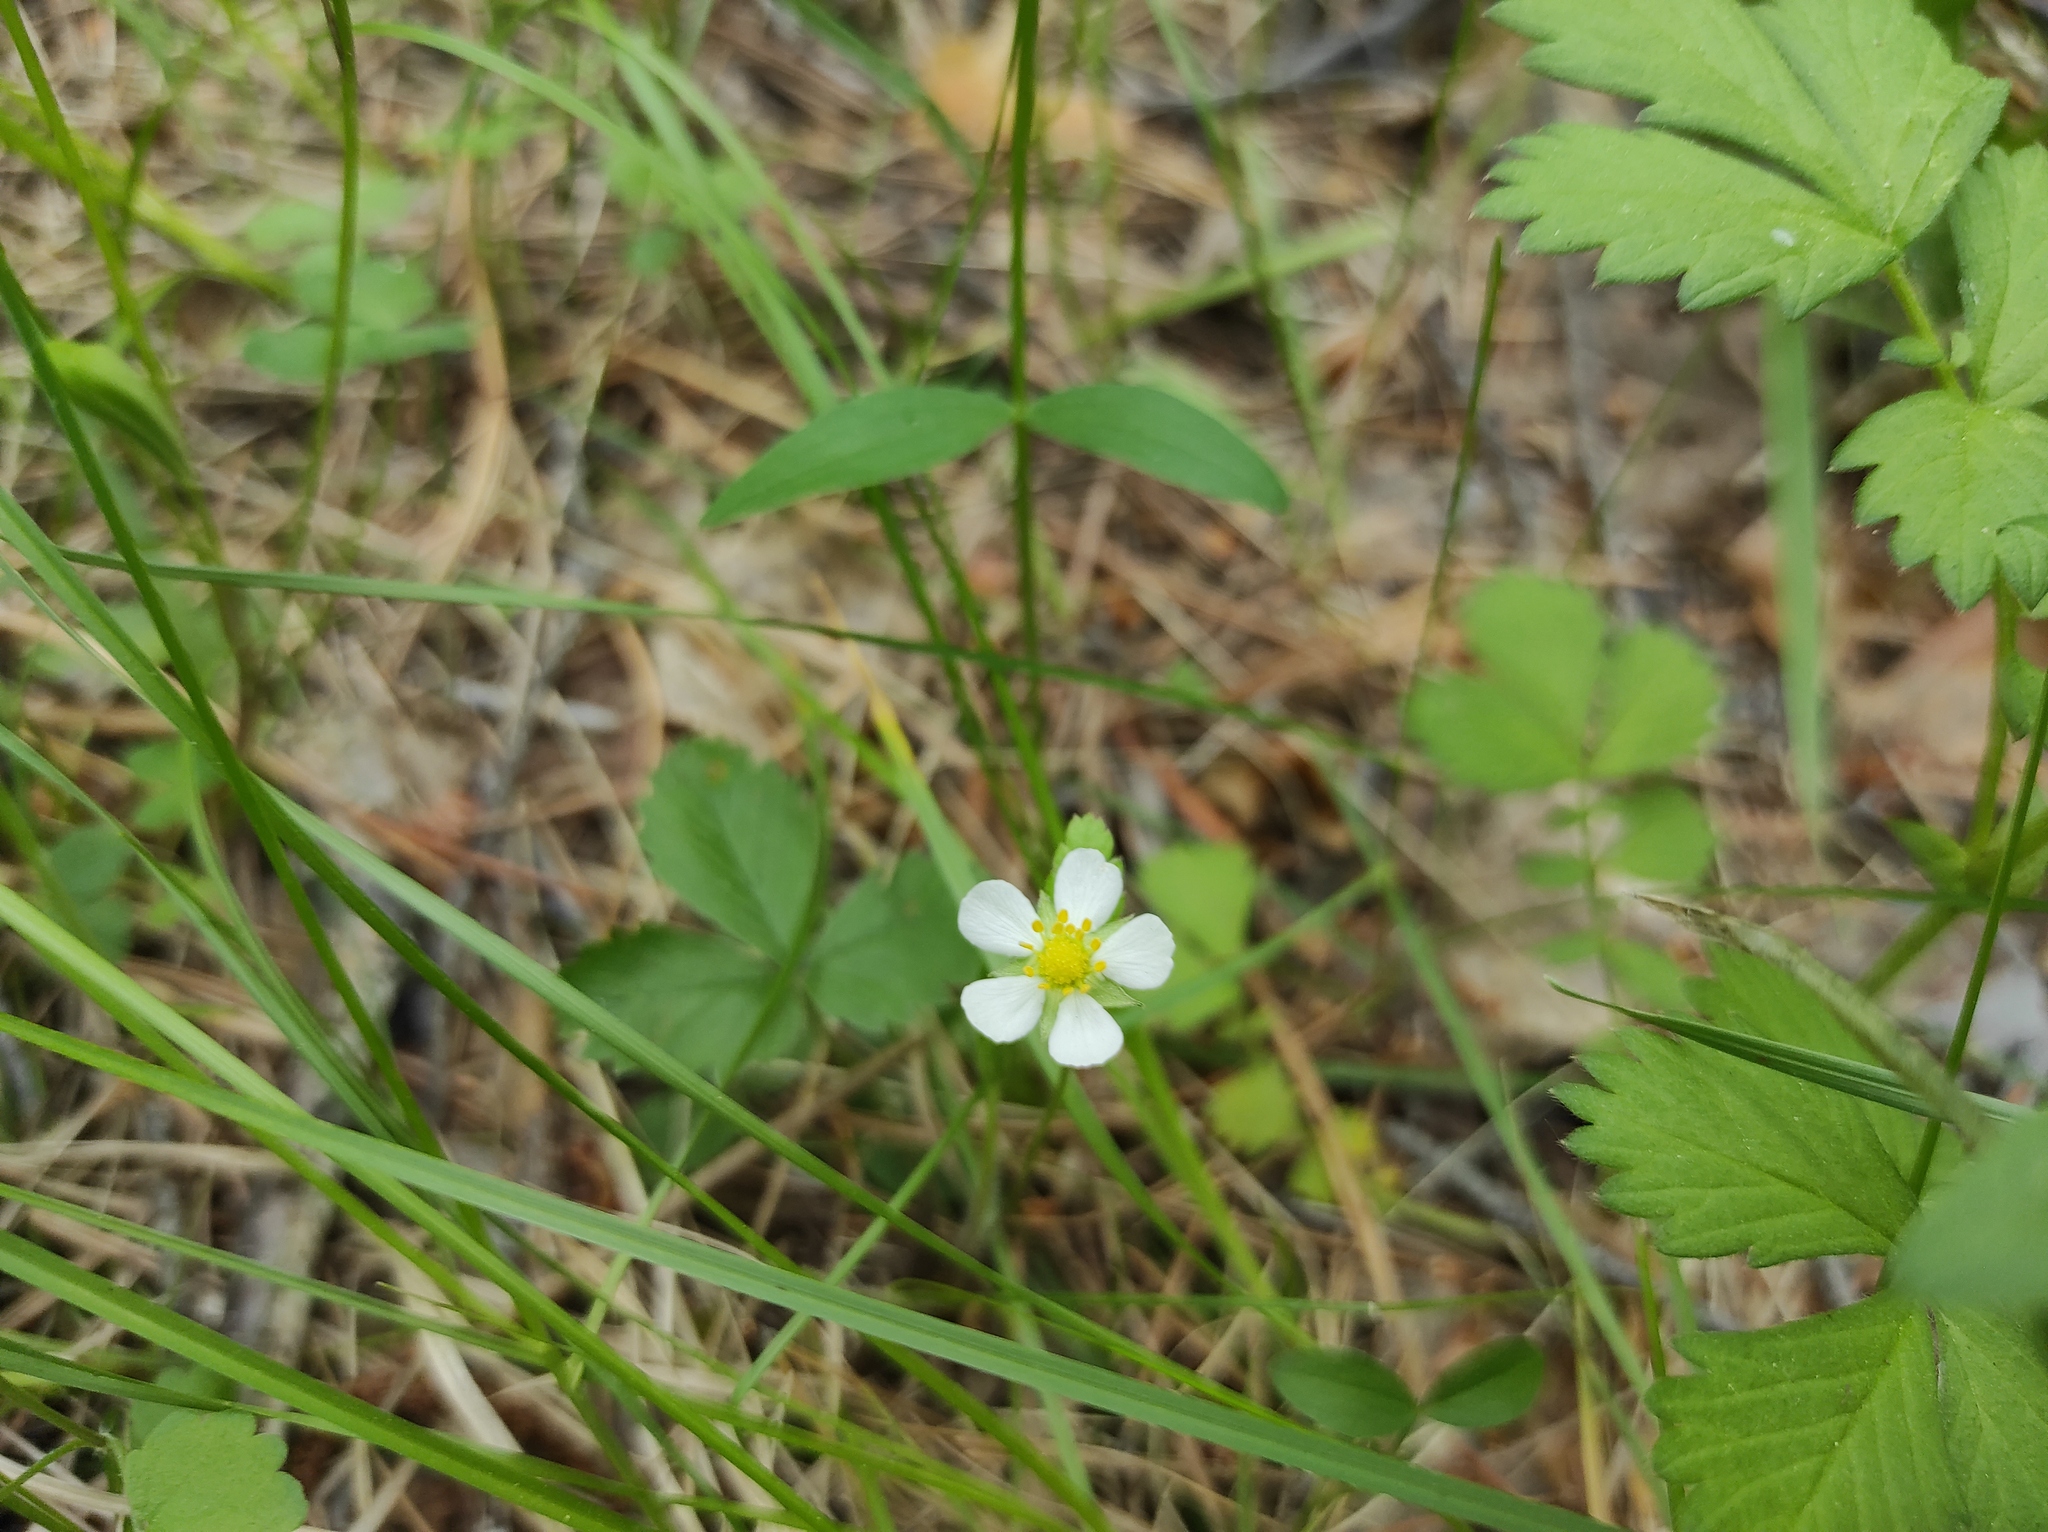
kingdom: Plantae
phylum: Tracheophyta
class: Magnoliopsida
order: Rosales
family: Rosaceae
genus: Fragaria
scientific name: Fragaria vesca
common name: Wild strawberry
